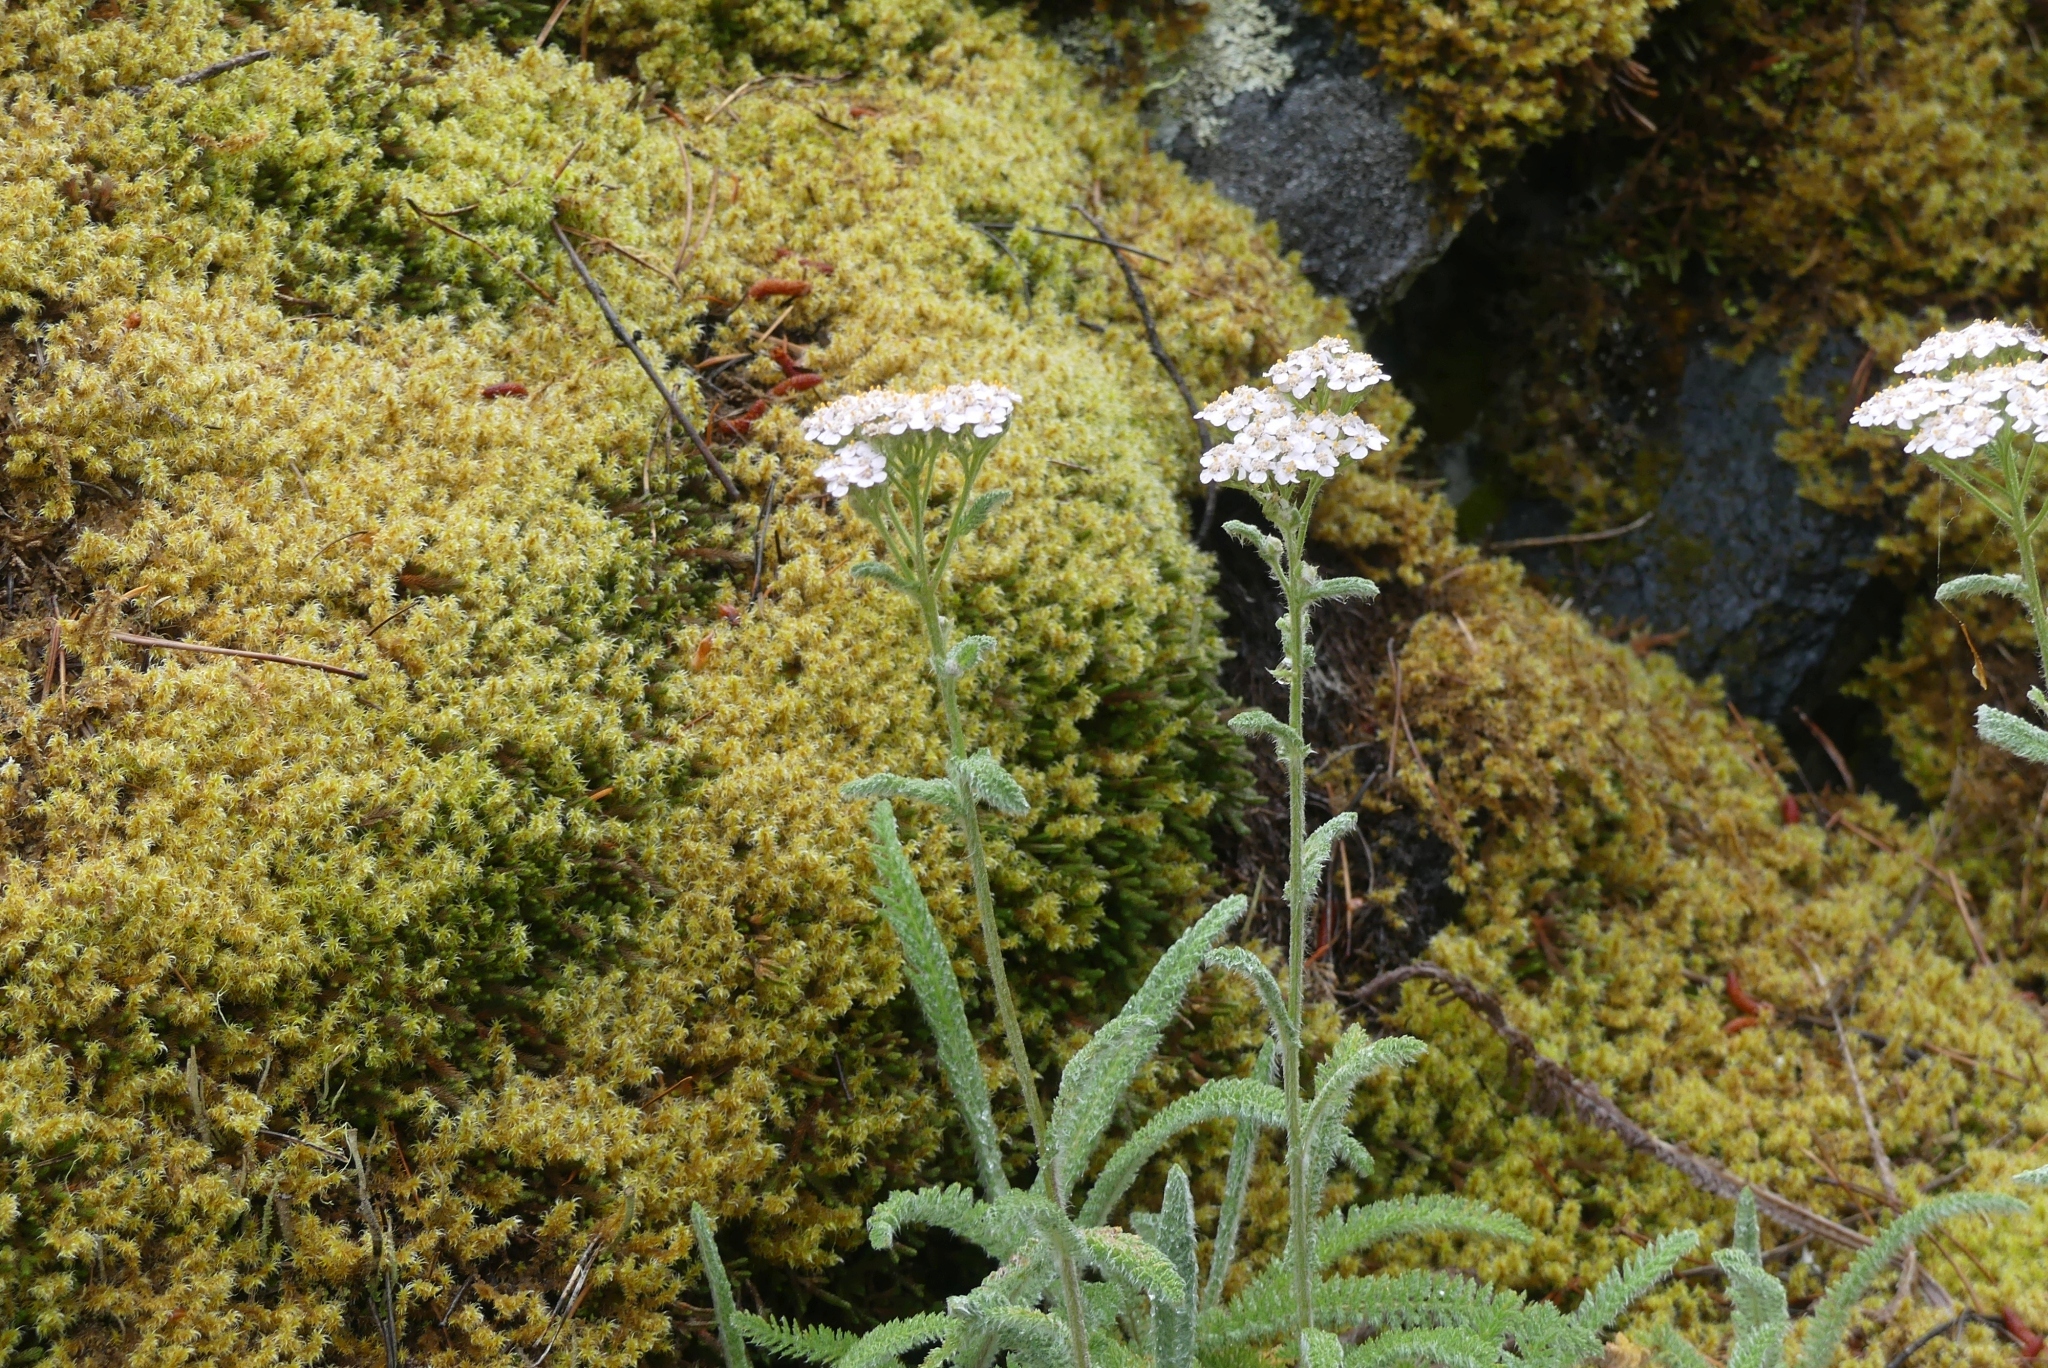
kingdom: Plantae
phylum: Tracheophyta
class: Magnoliopsida
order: Asterales
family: Asteraceae
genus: Achillea
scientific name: Achillea millefolium
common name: Yarrow
